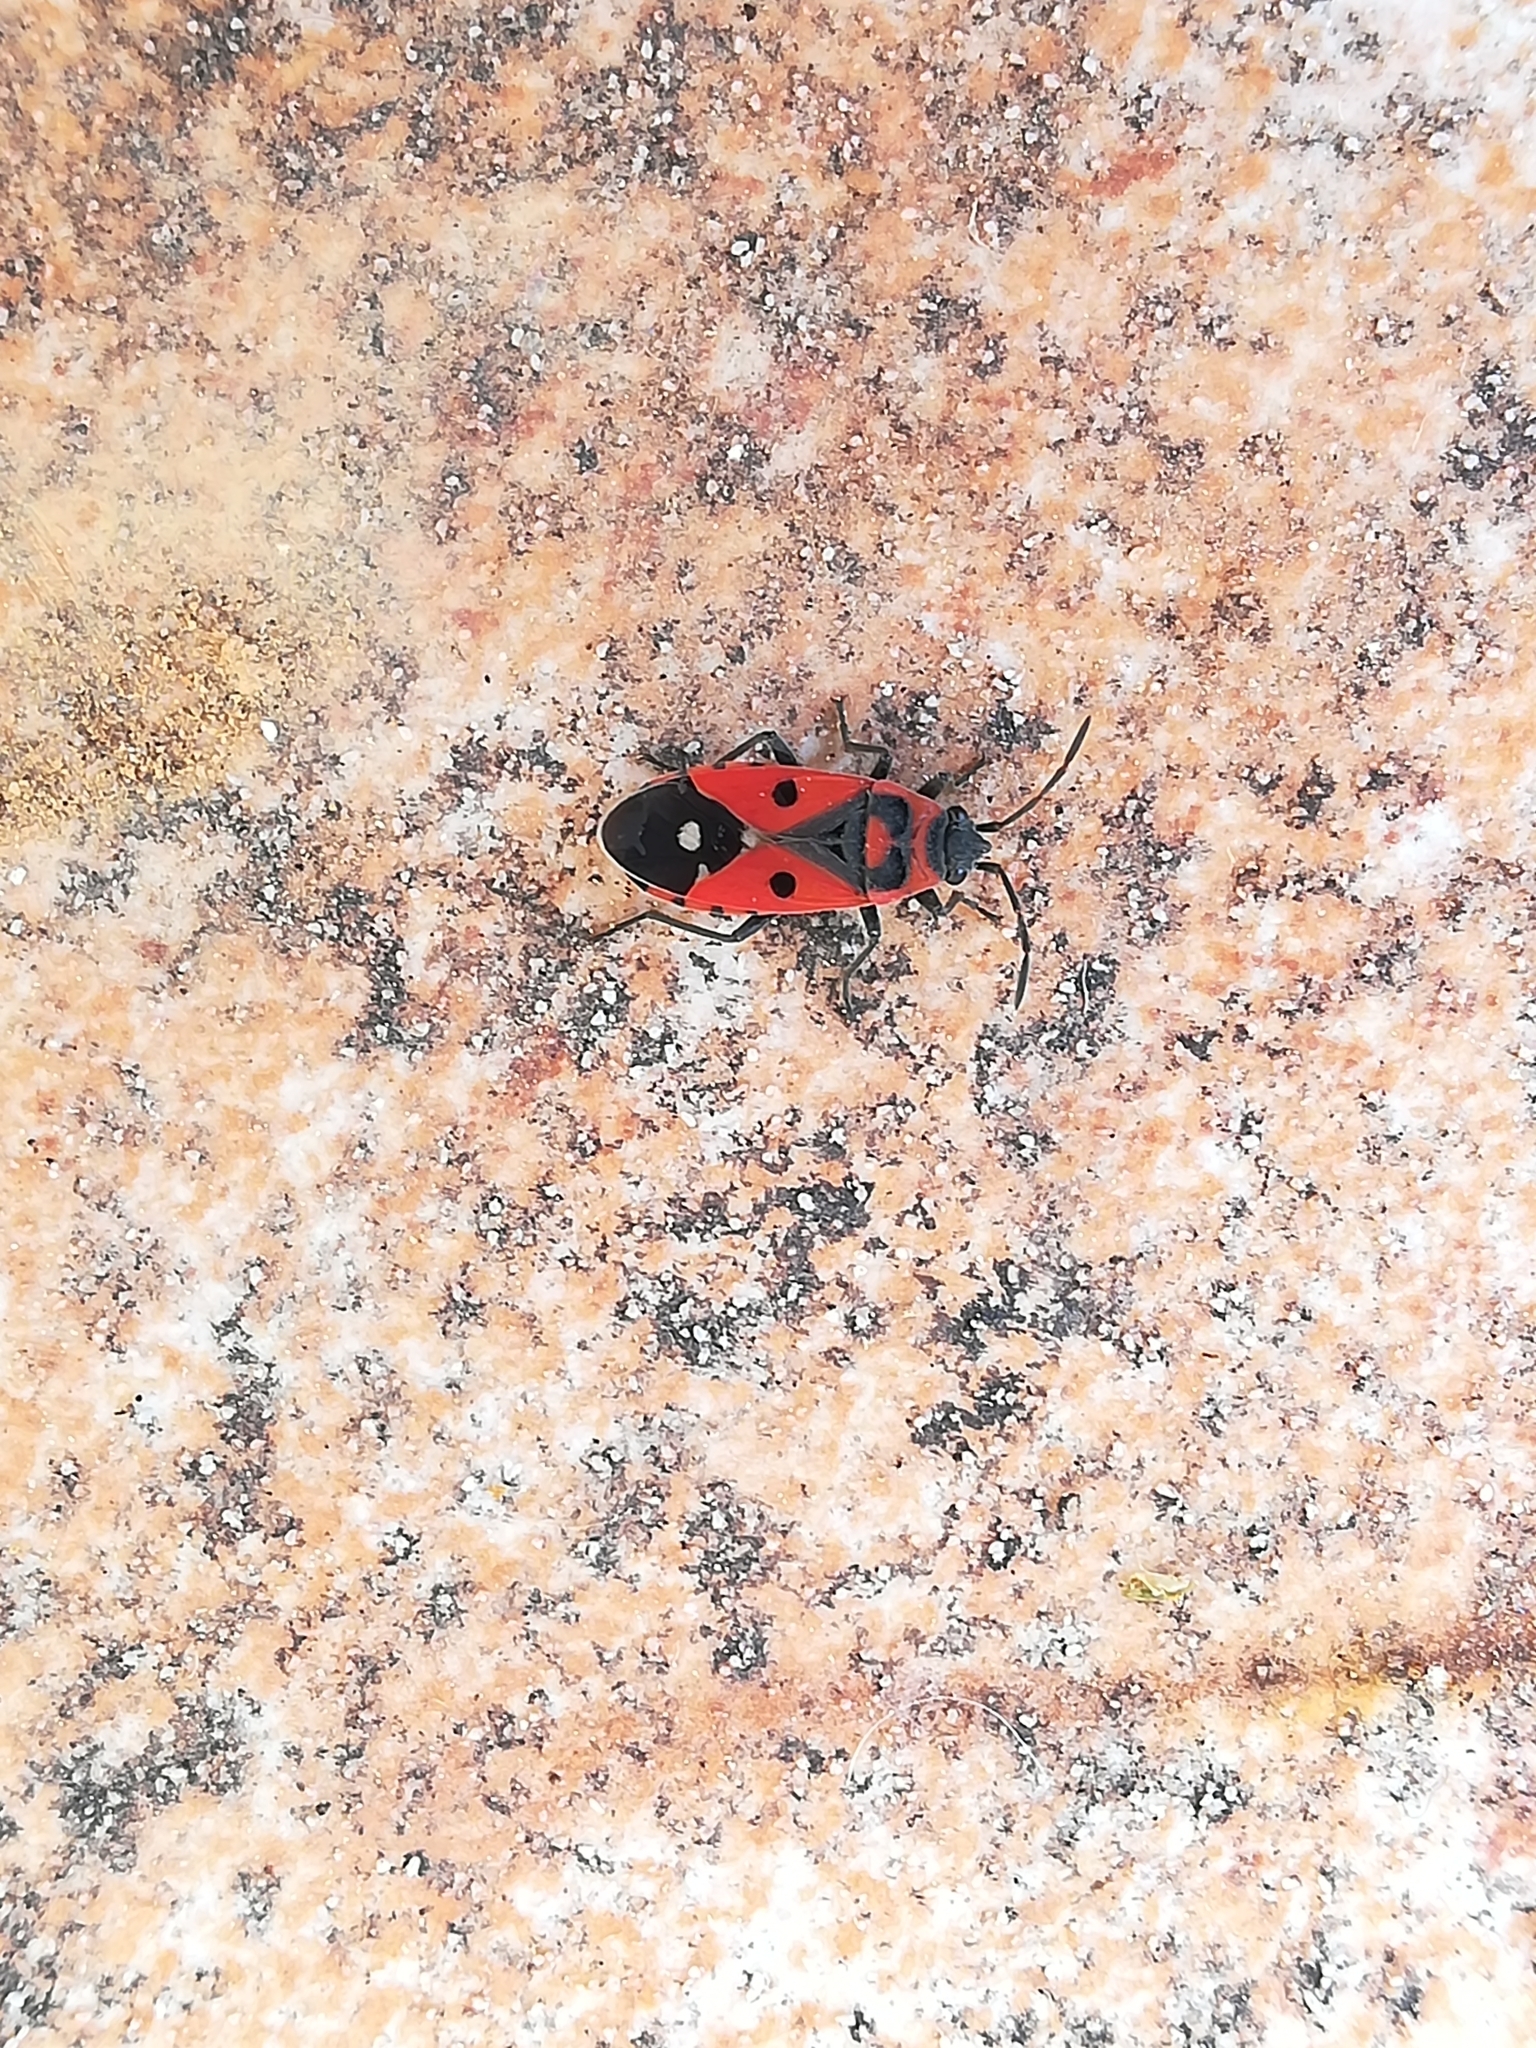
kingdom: Animalia
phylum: Arthropoda
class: Insecta
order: Hemiptera
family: Lygaeidae
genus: Melanocoryphus
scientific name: Melanocoryphus albomaculatus
